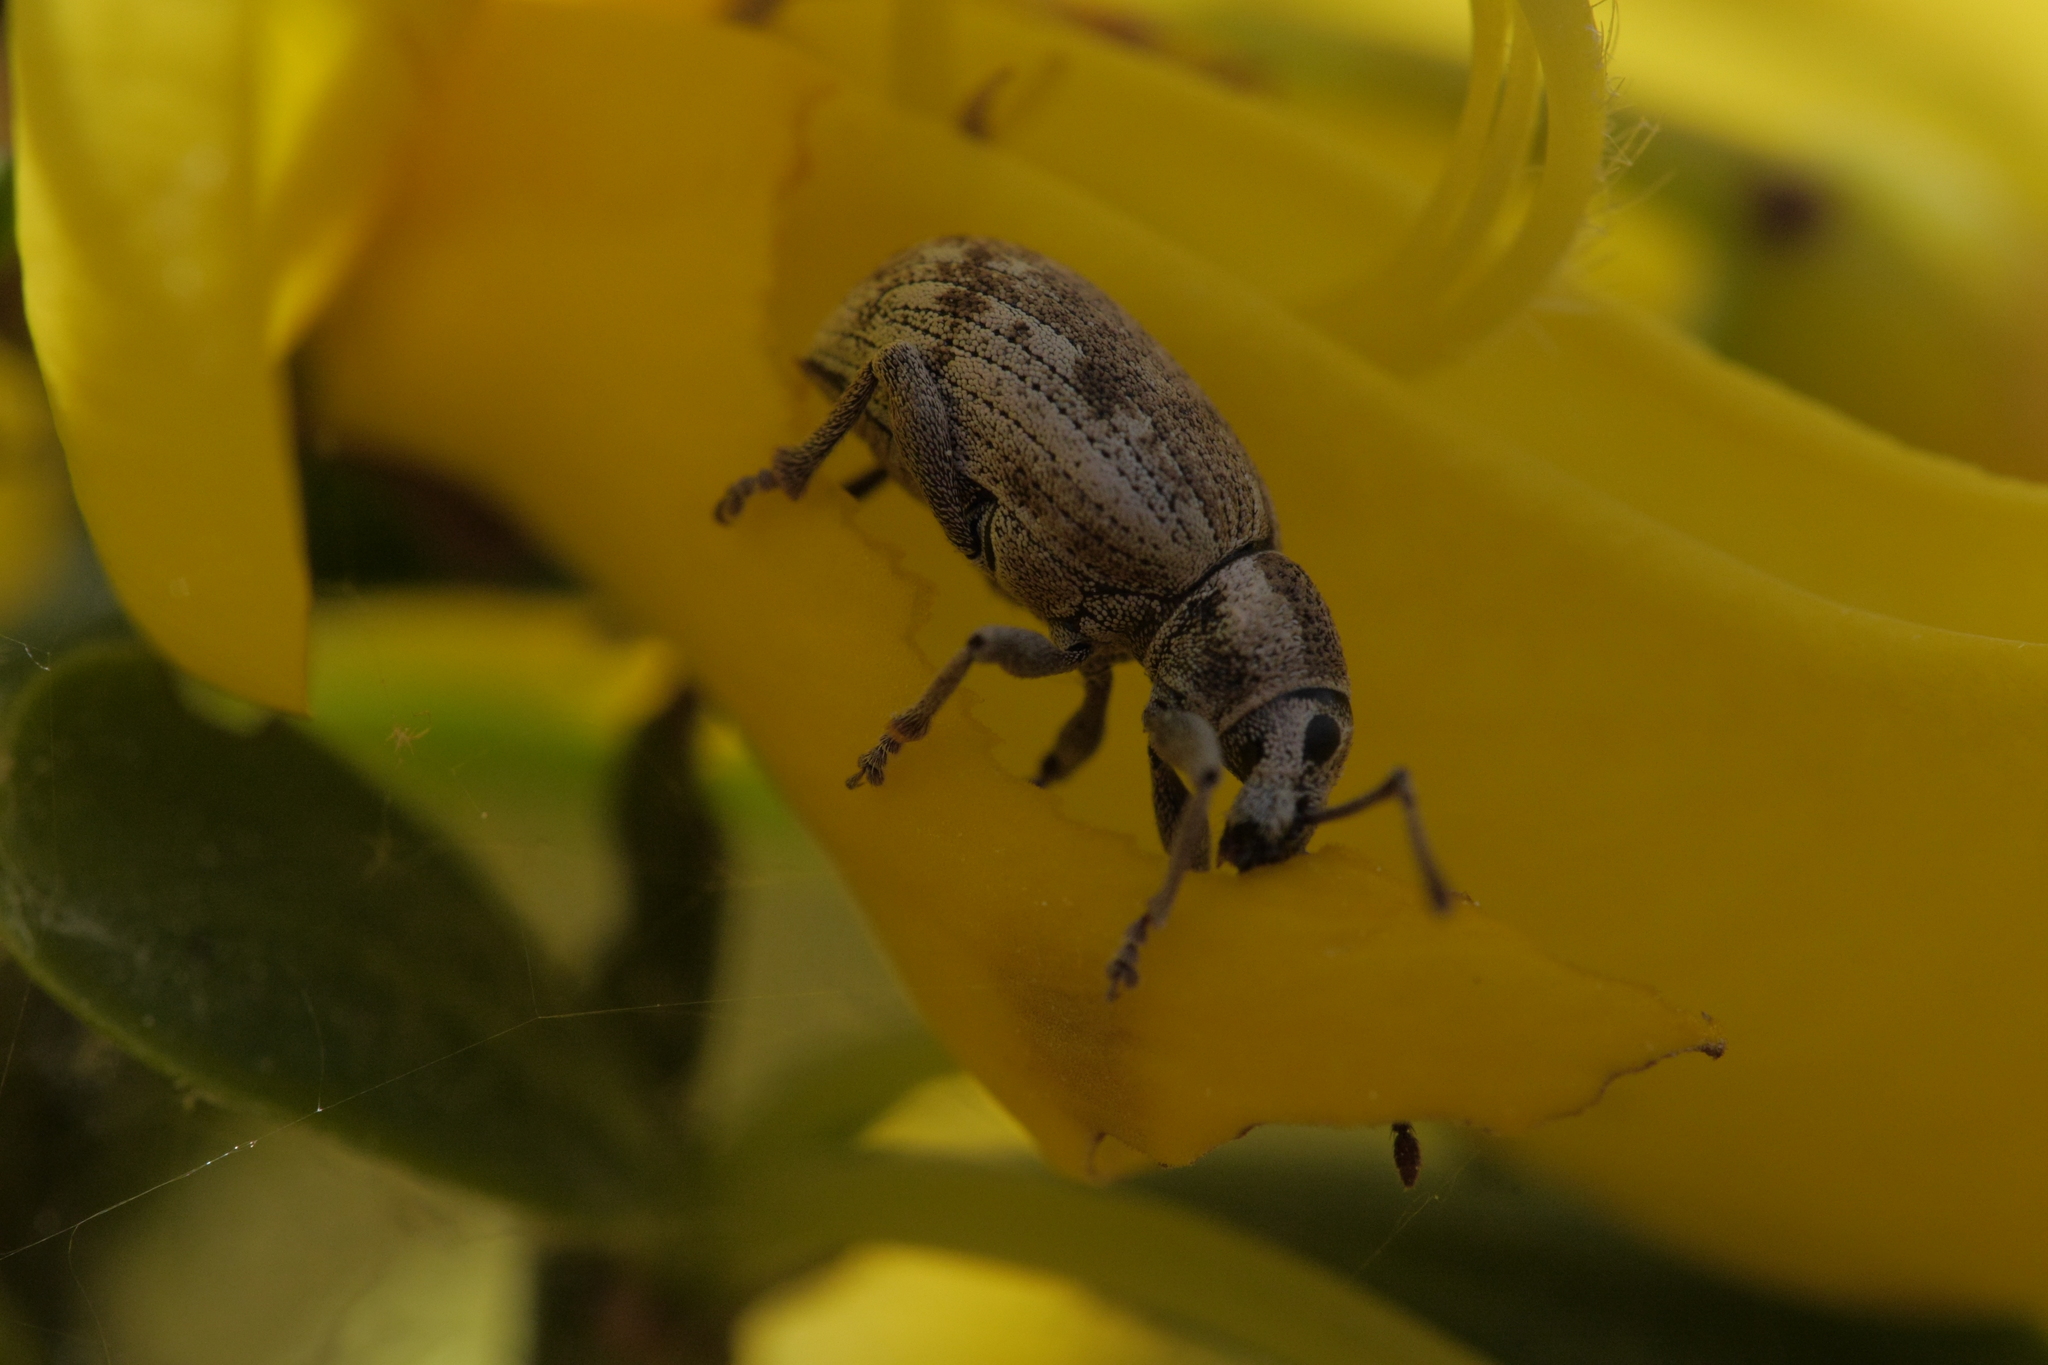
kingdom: Animalia
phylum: Arthropoda
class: Insecta
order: Coleoptera
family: Curculionidae
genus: Peritelus
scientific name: Peritelus sphaeroides
